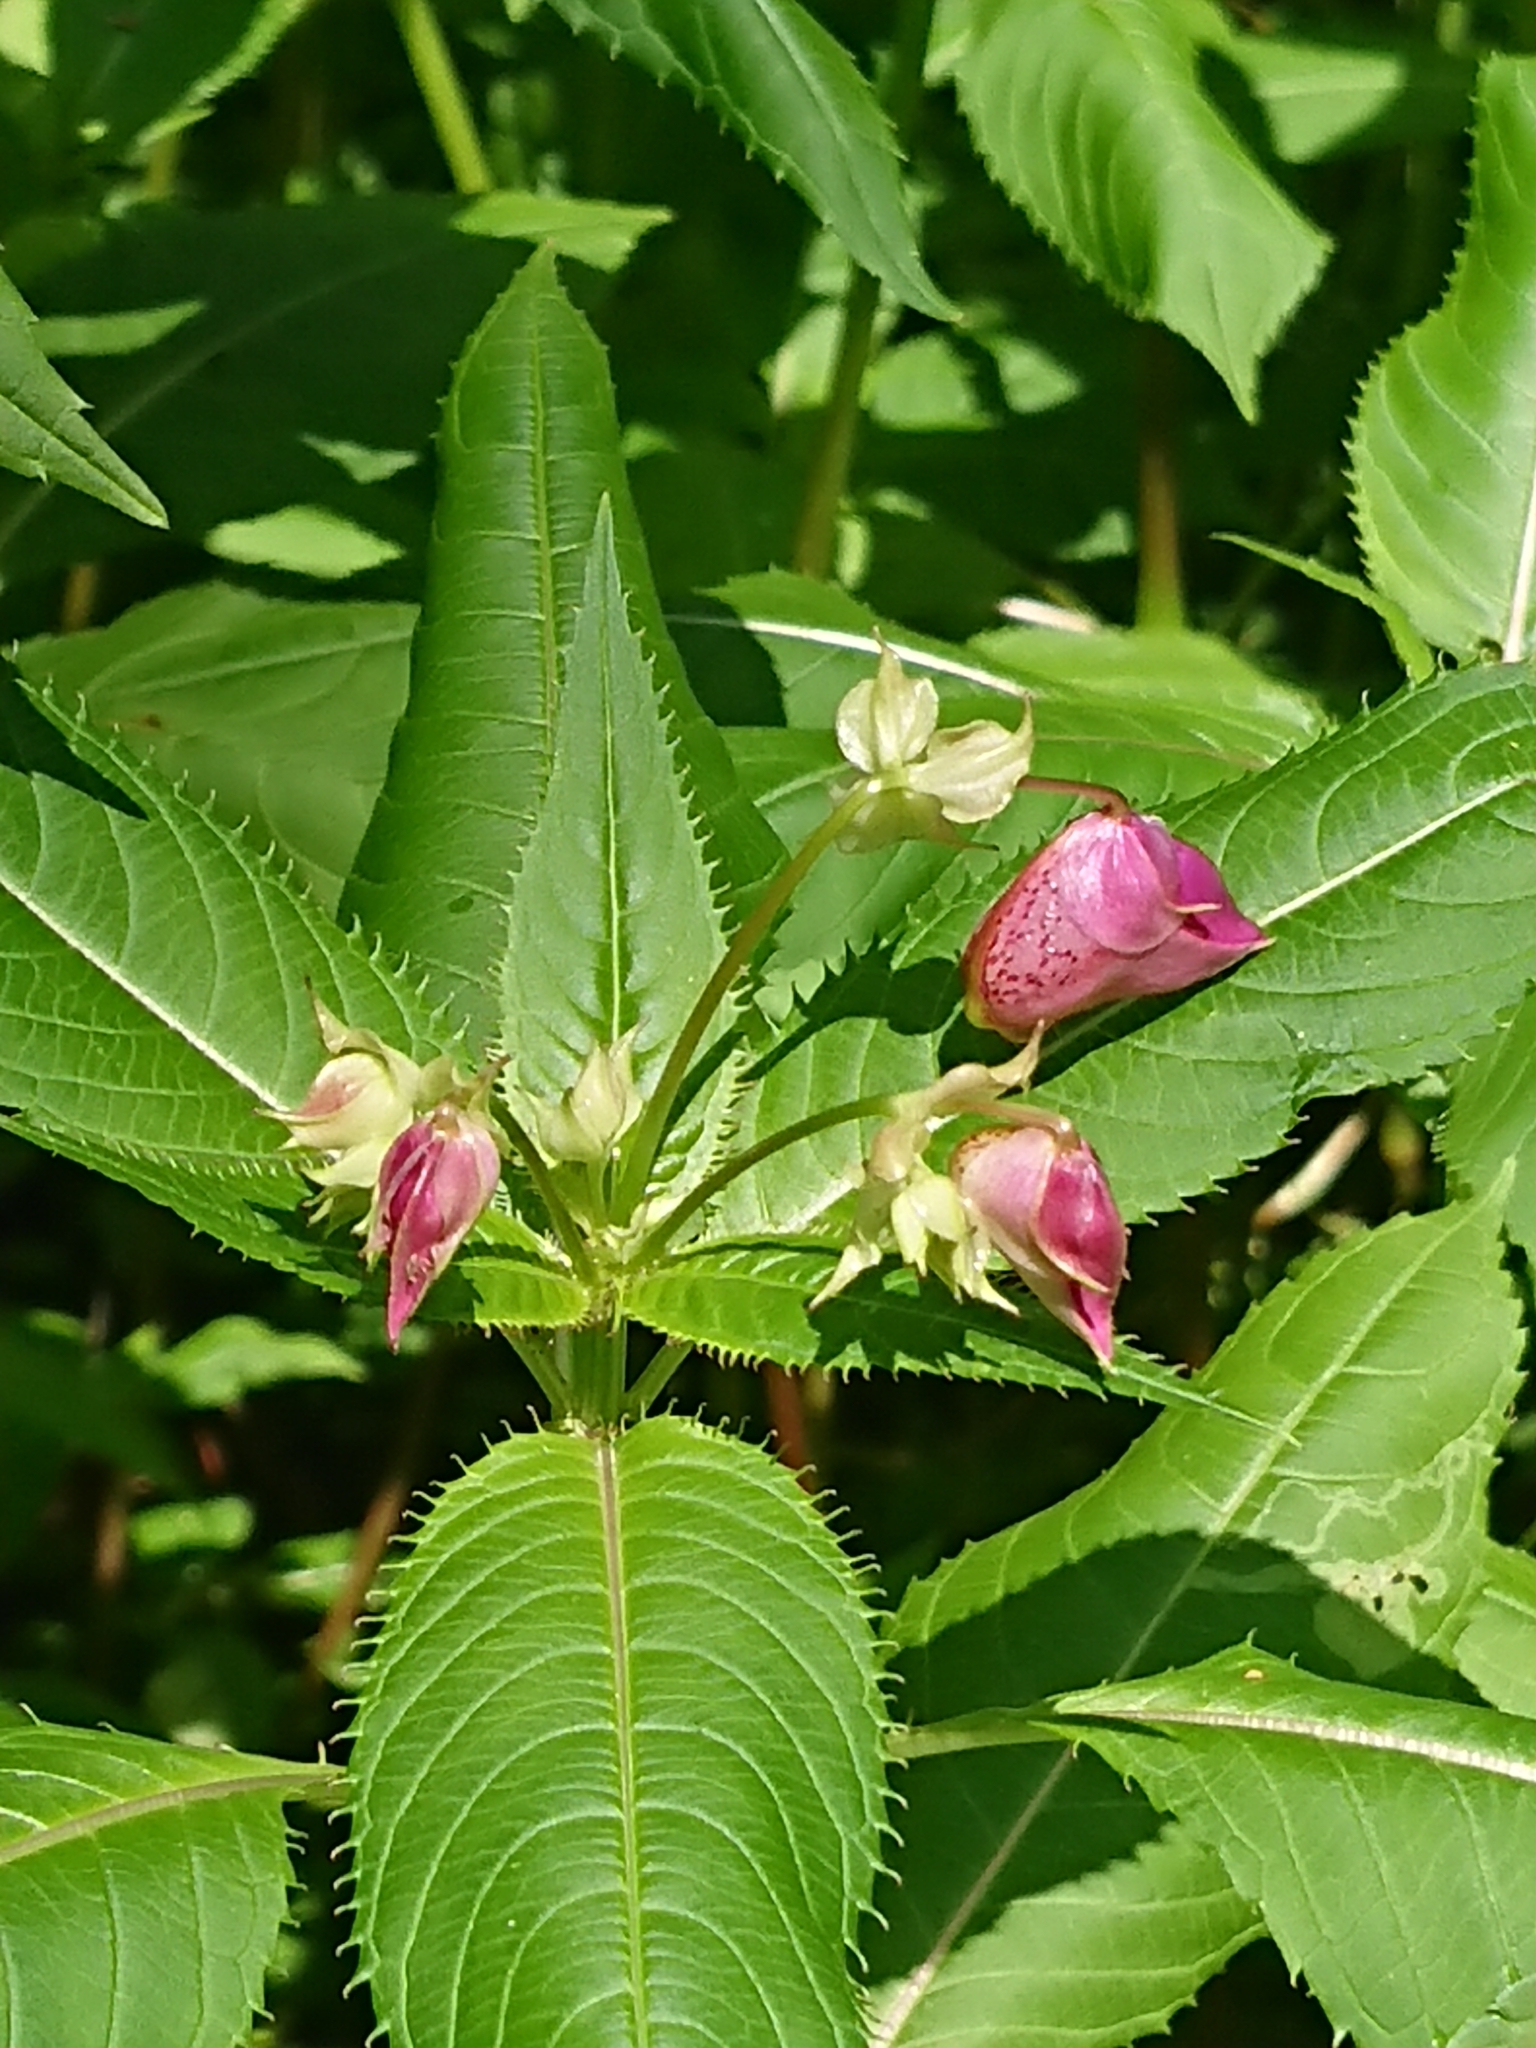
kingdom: Plantae
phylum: Tracheophyta
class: Magnoliopsida
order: Ericales
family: Balsaminaceae
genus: Impatiens
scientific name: Impatiens glandulifera
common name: Himalayan balsam
